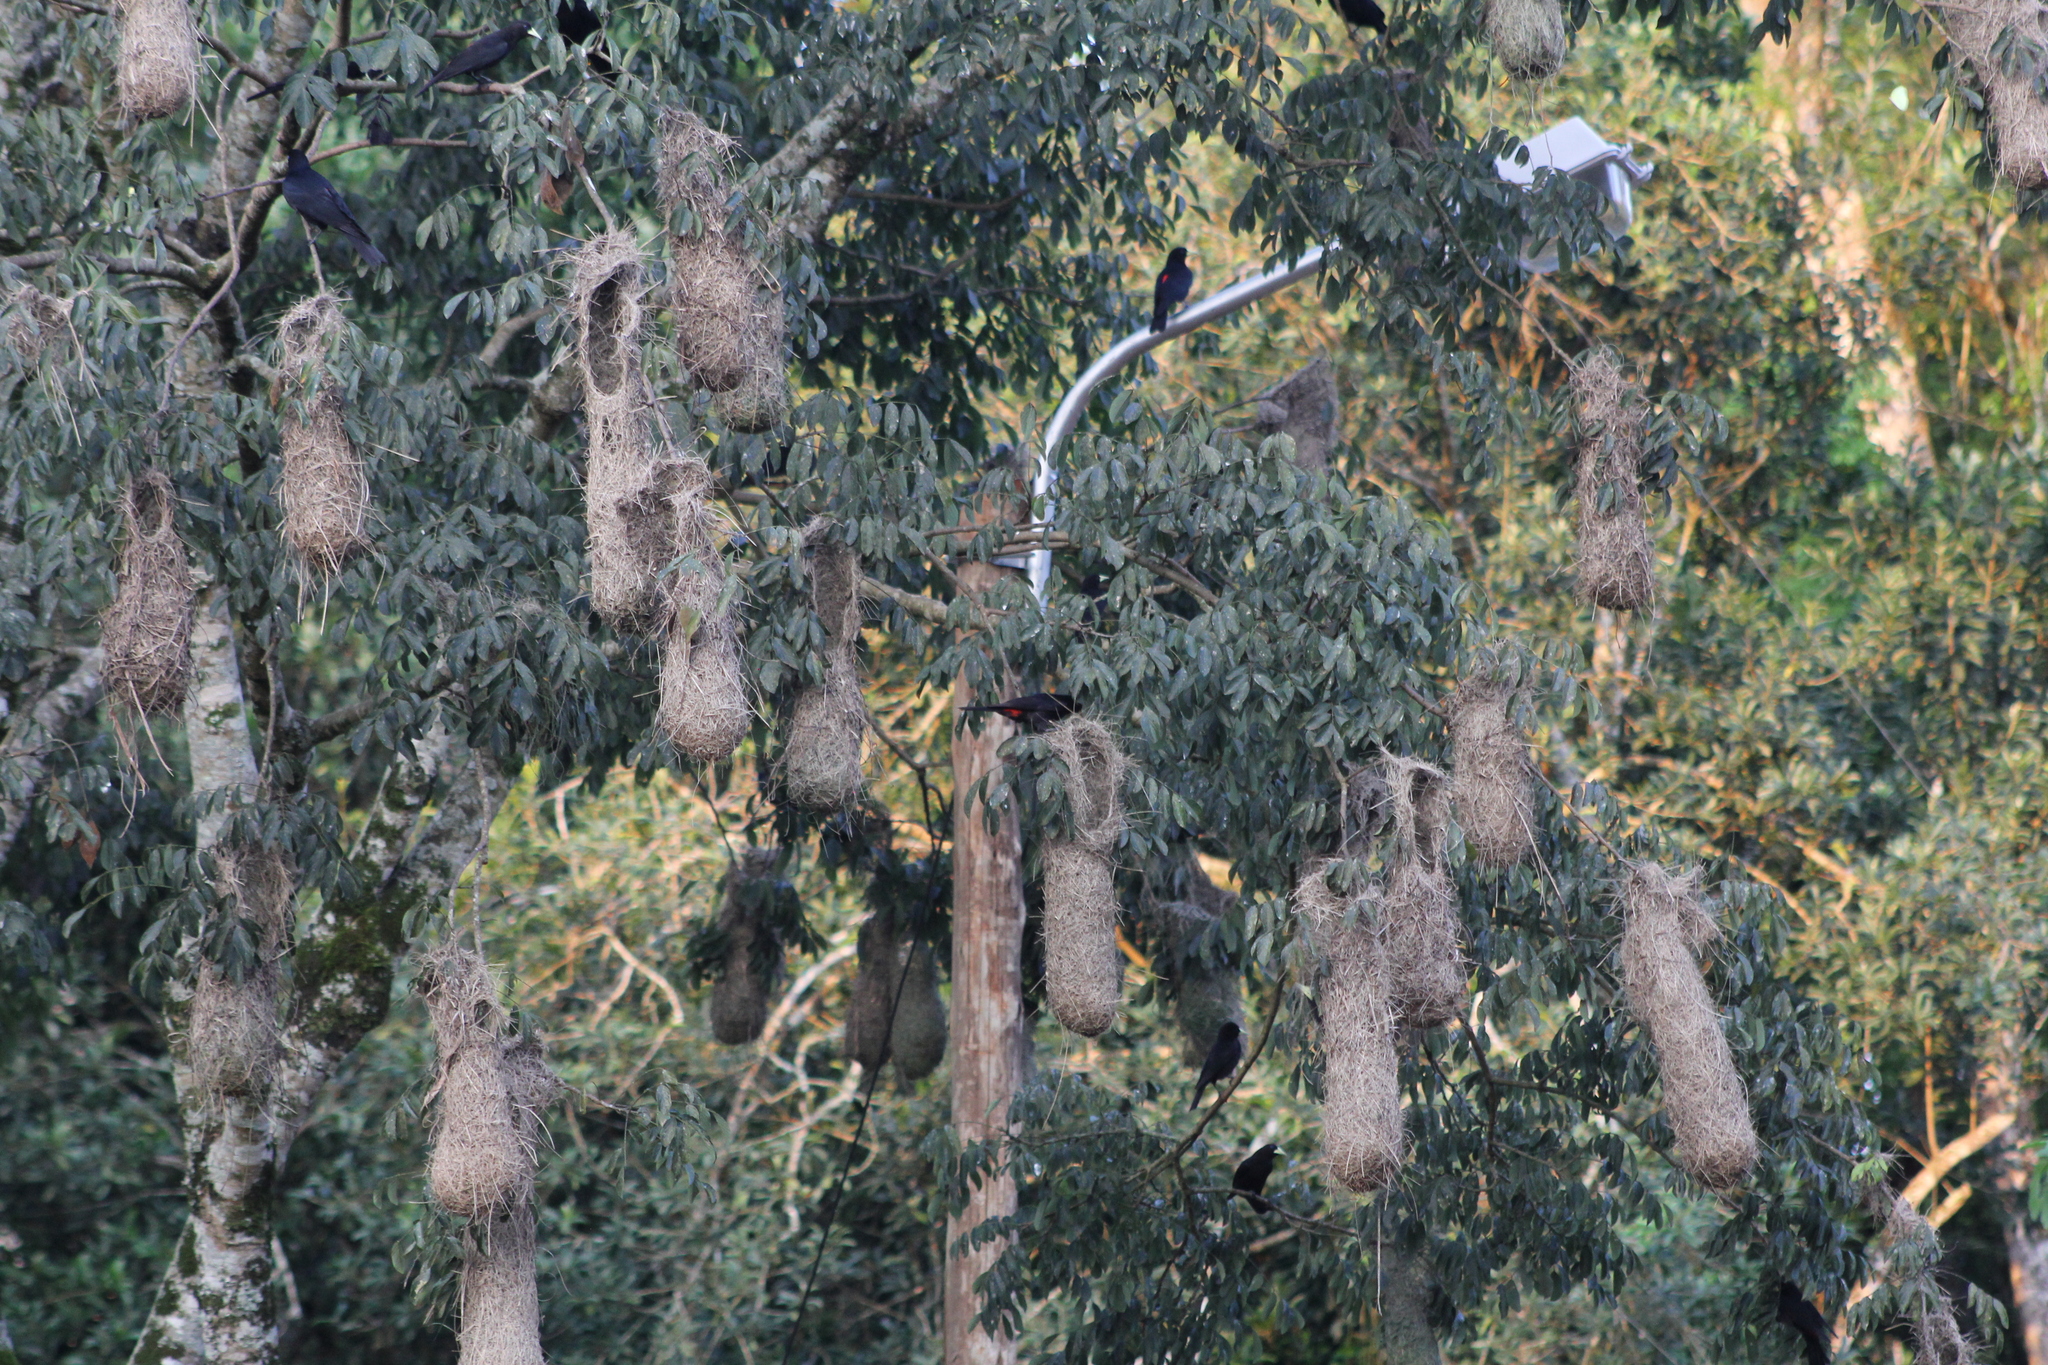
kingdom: Animalia
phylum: Chordata
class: Aves
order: Passeriformes
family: Icteridae
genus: Cacicus
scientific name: Cacicus haemorrhous
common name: Red-rumped cacique
